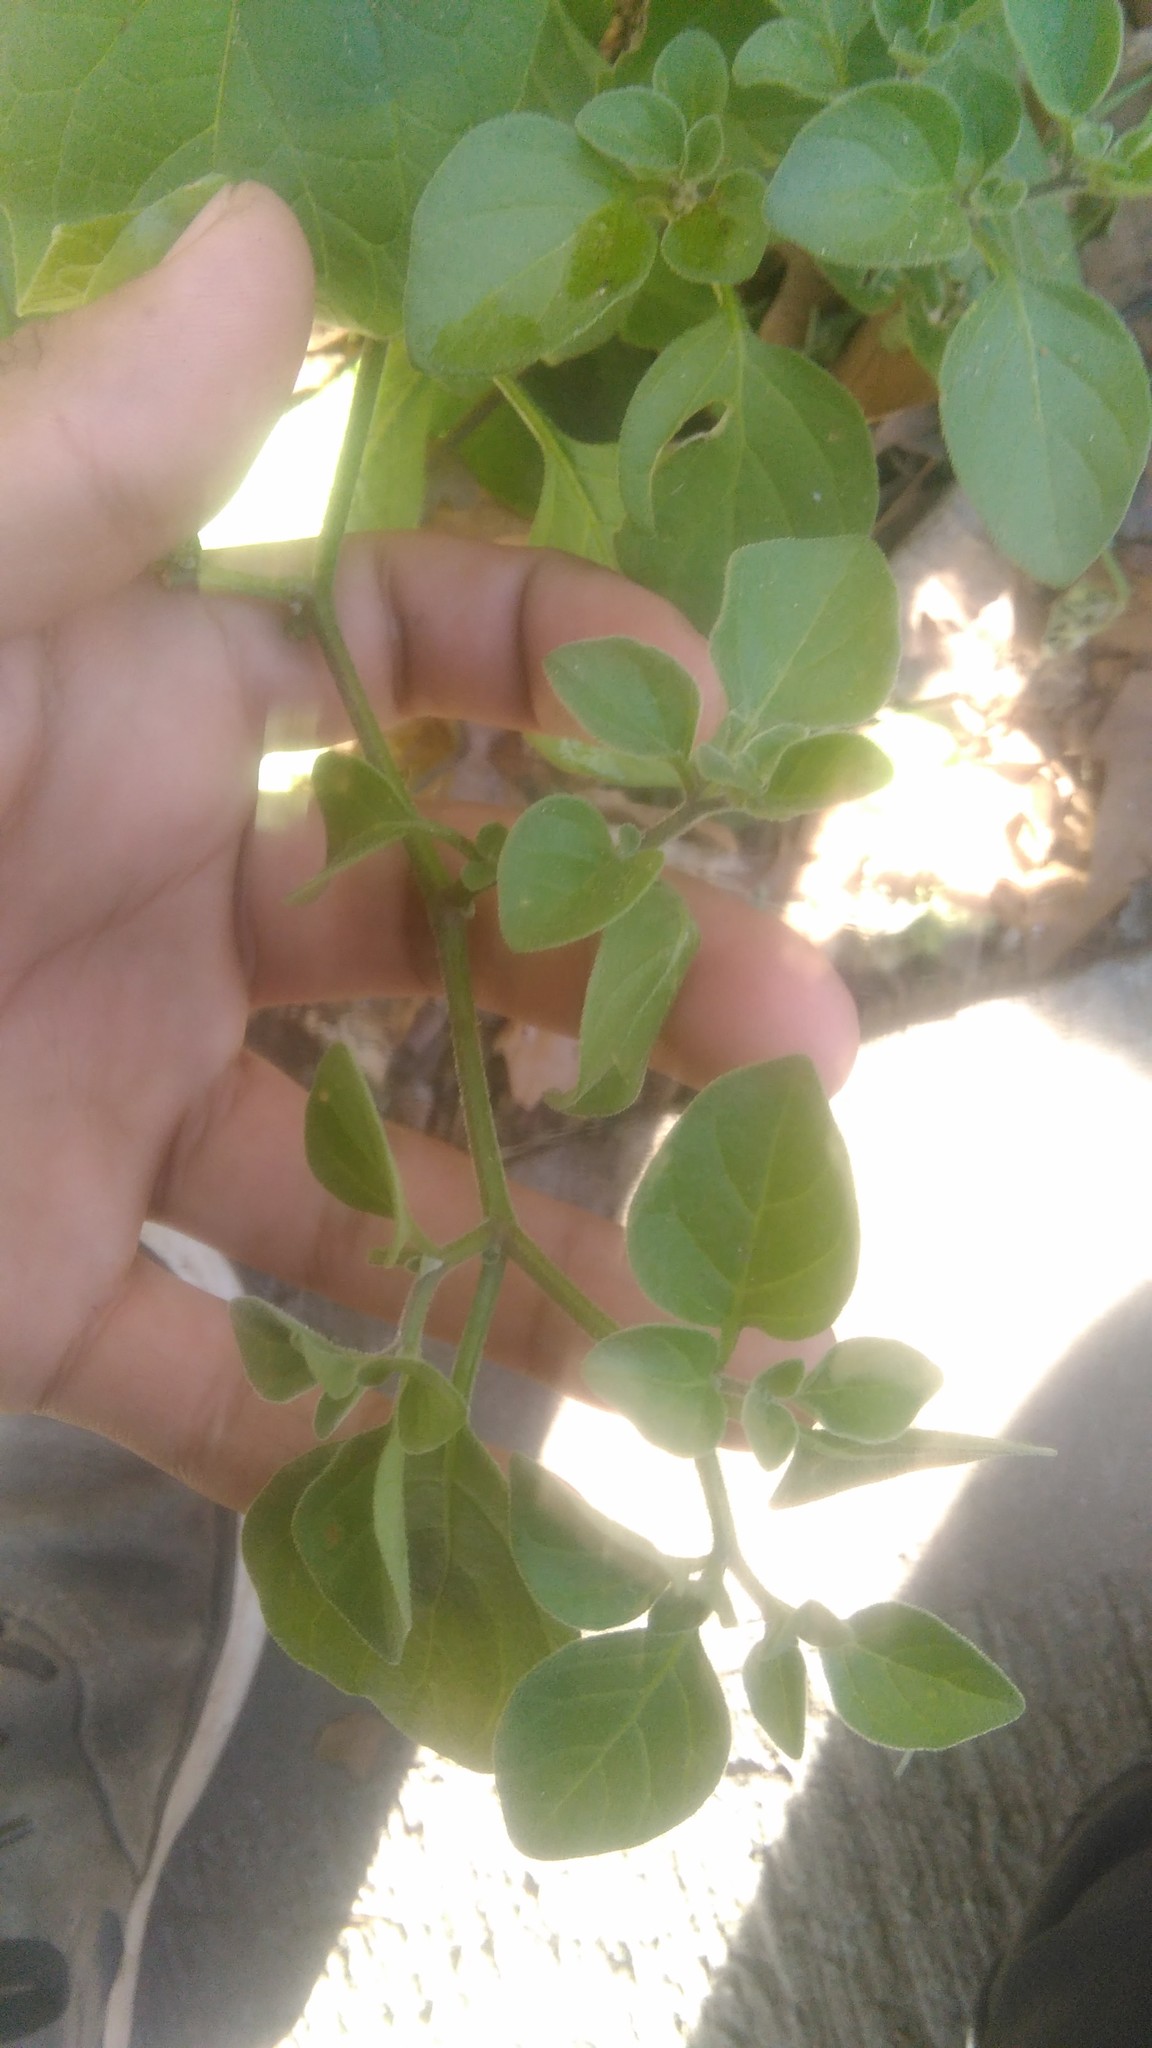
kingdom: Plantae
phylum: Tracheophyta
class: Magnoliopsida
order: Solanales
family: Solanaceae
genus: Salpichroa
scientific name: Salpichroa origanifolia
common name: Lily-of-the-valley-vine
